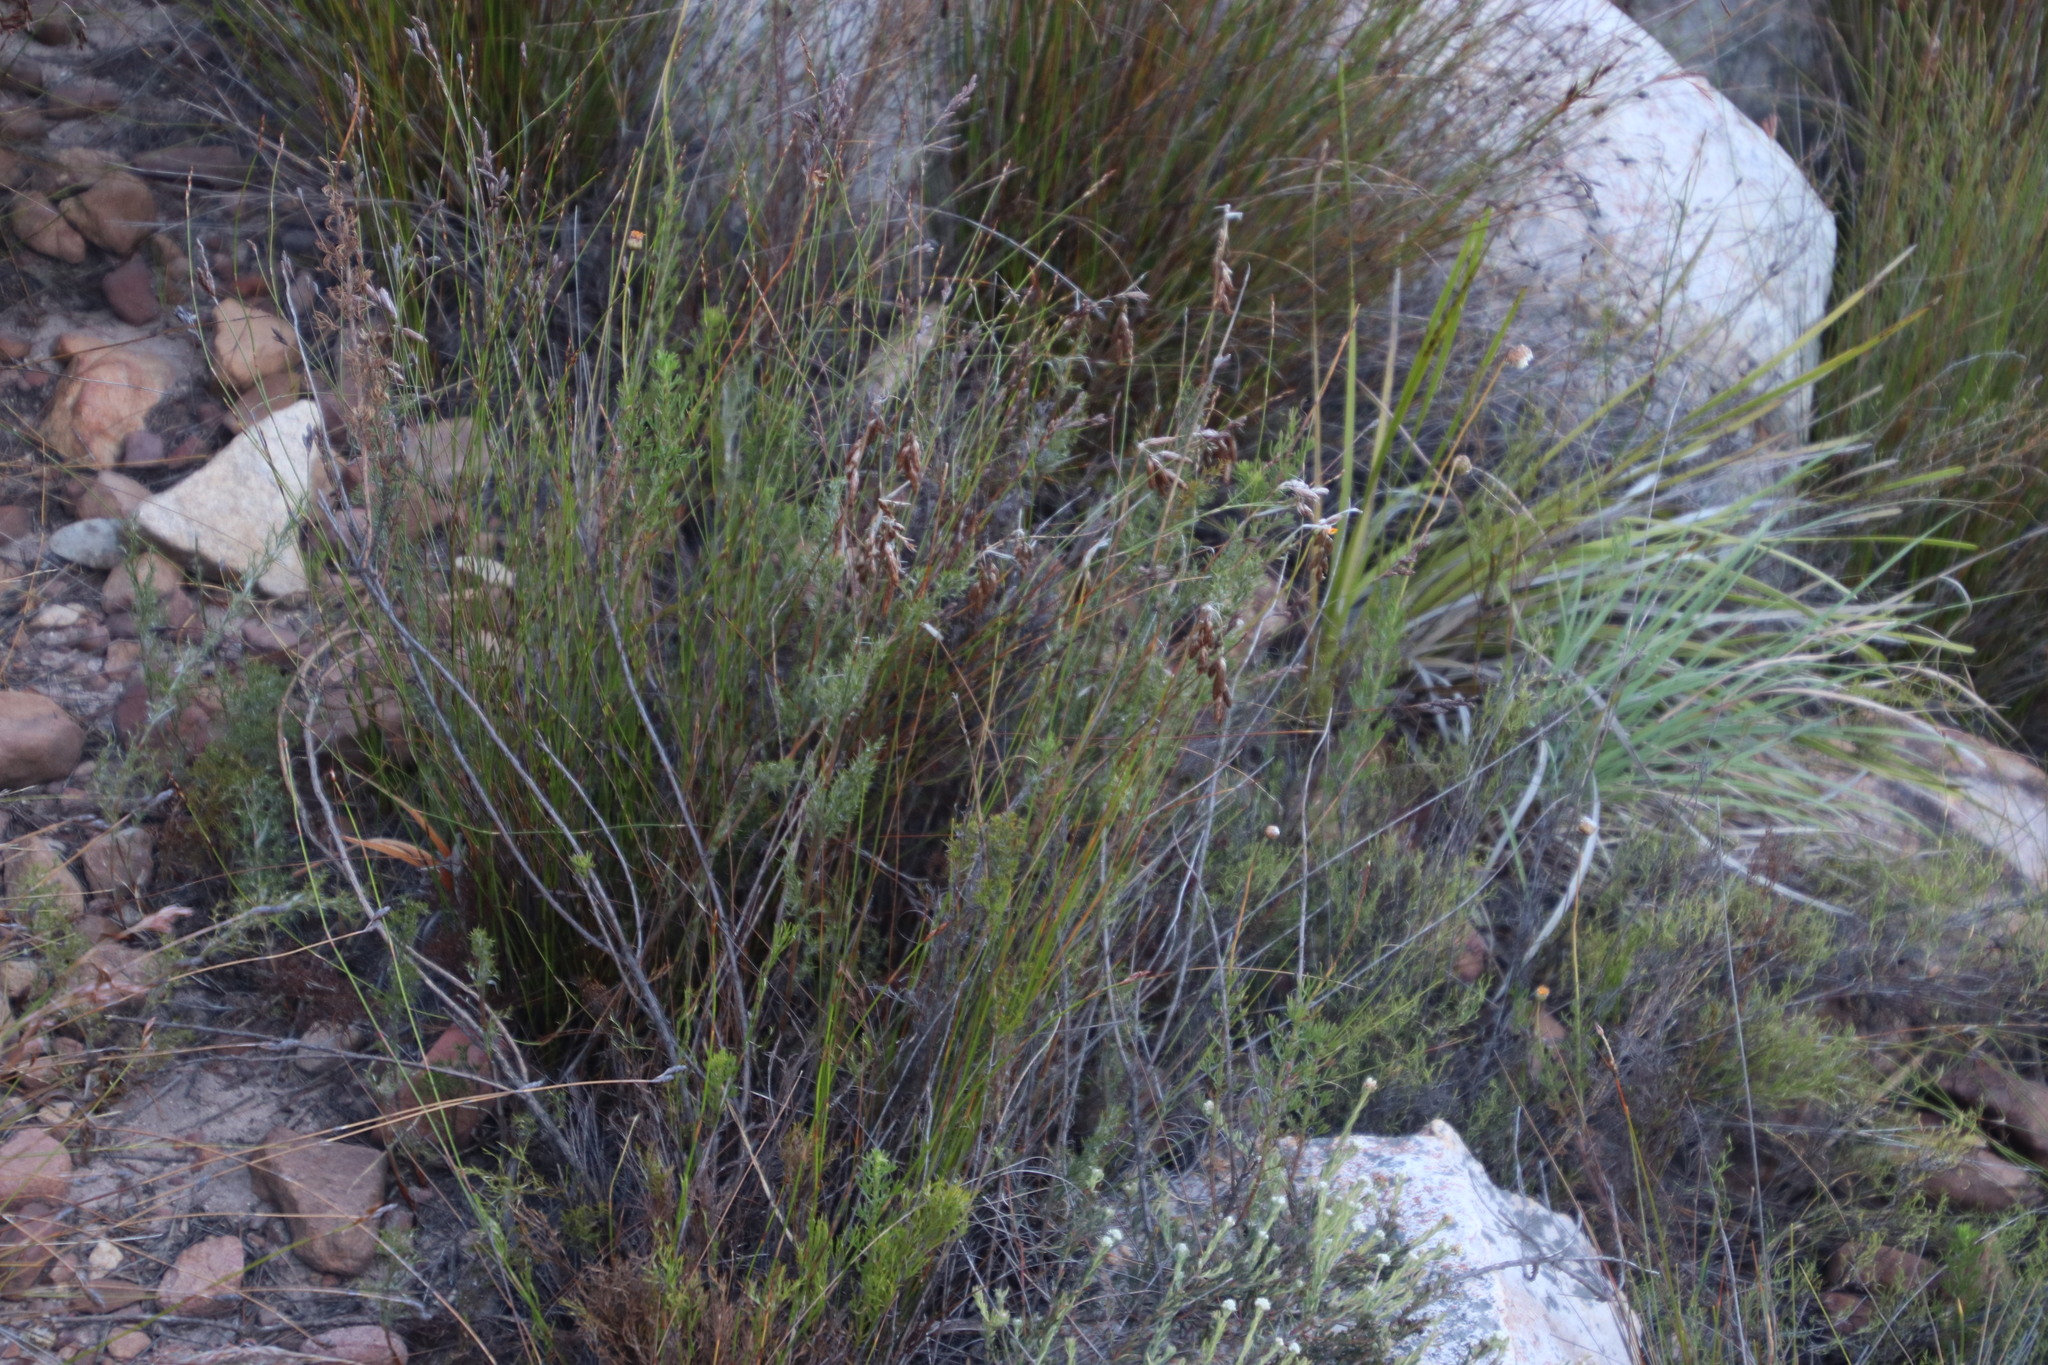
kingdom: Plantae
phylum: Tracheophyta
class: Liliopsida
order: Poales
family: Restionaceae
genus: Thamnochortus
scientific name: Thamnochortus fruticosus
